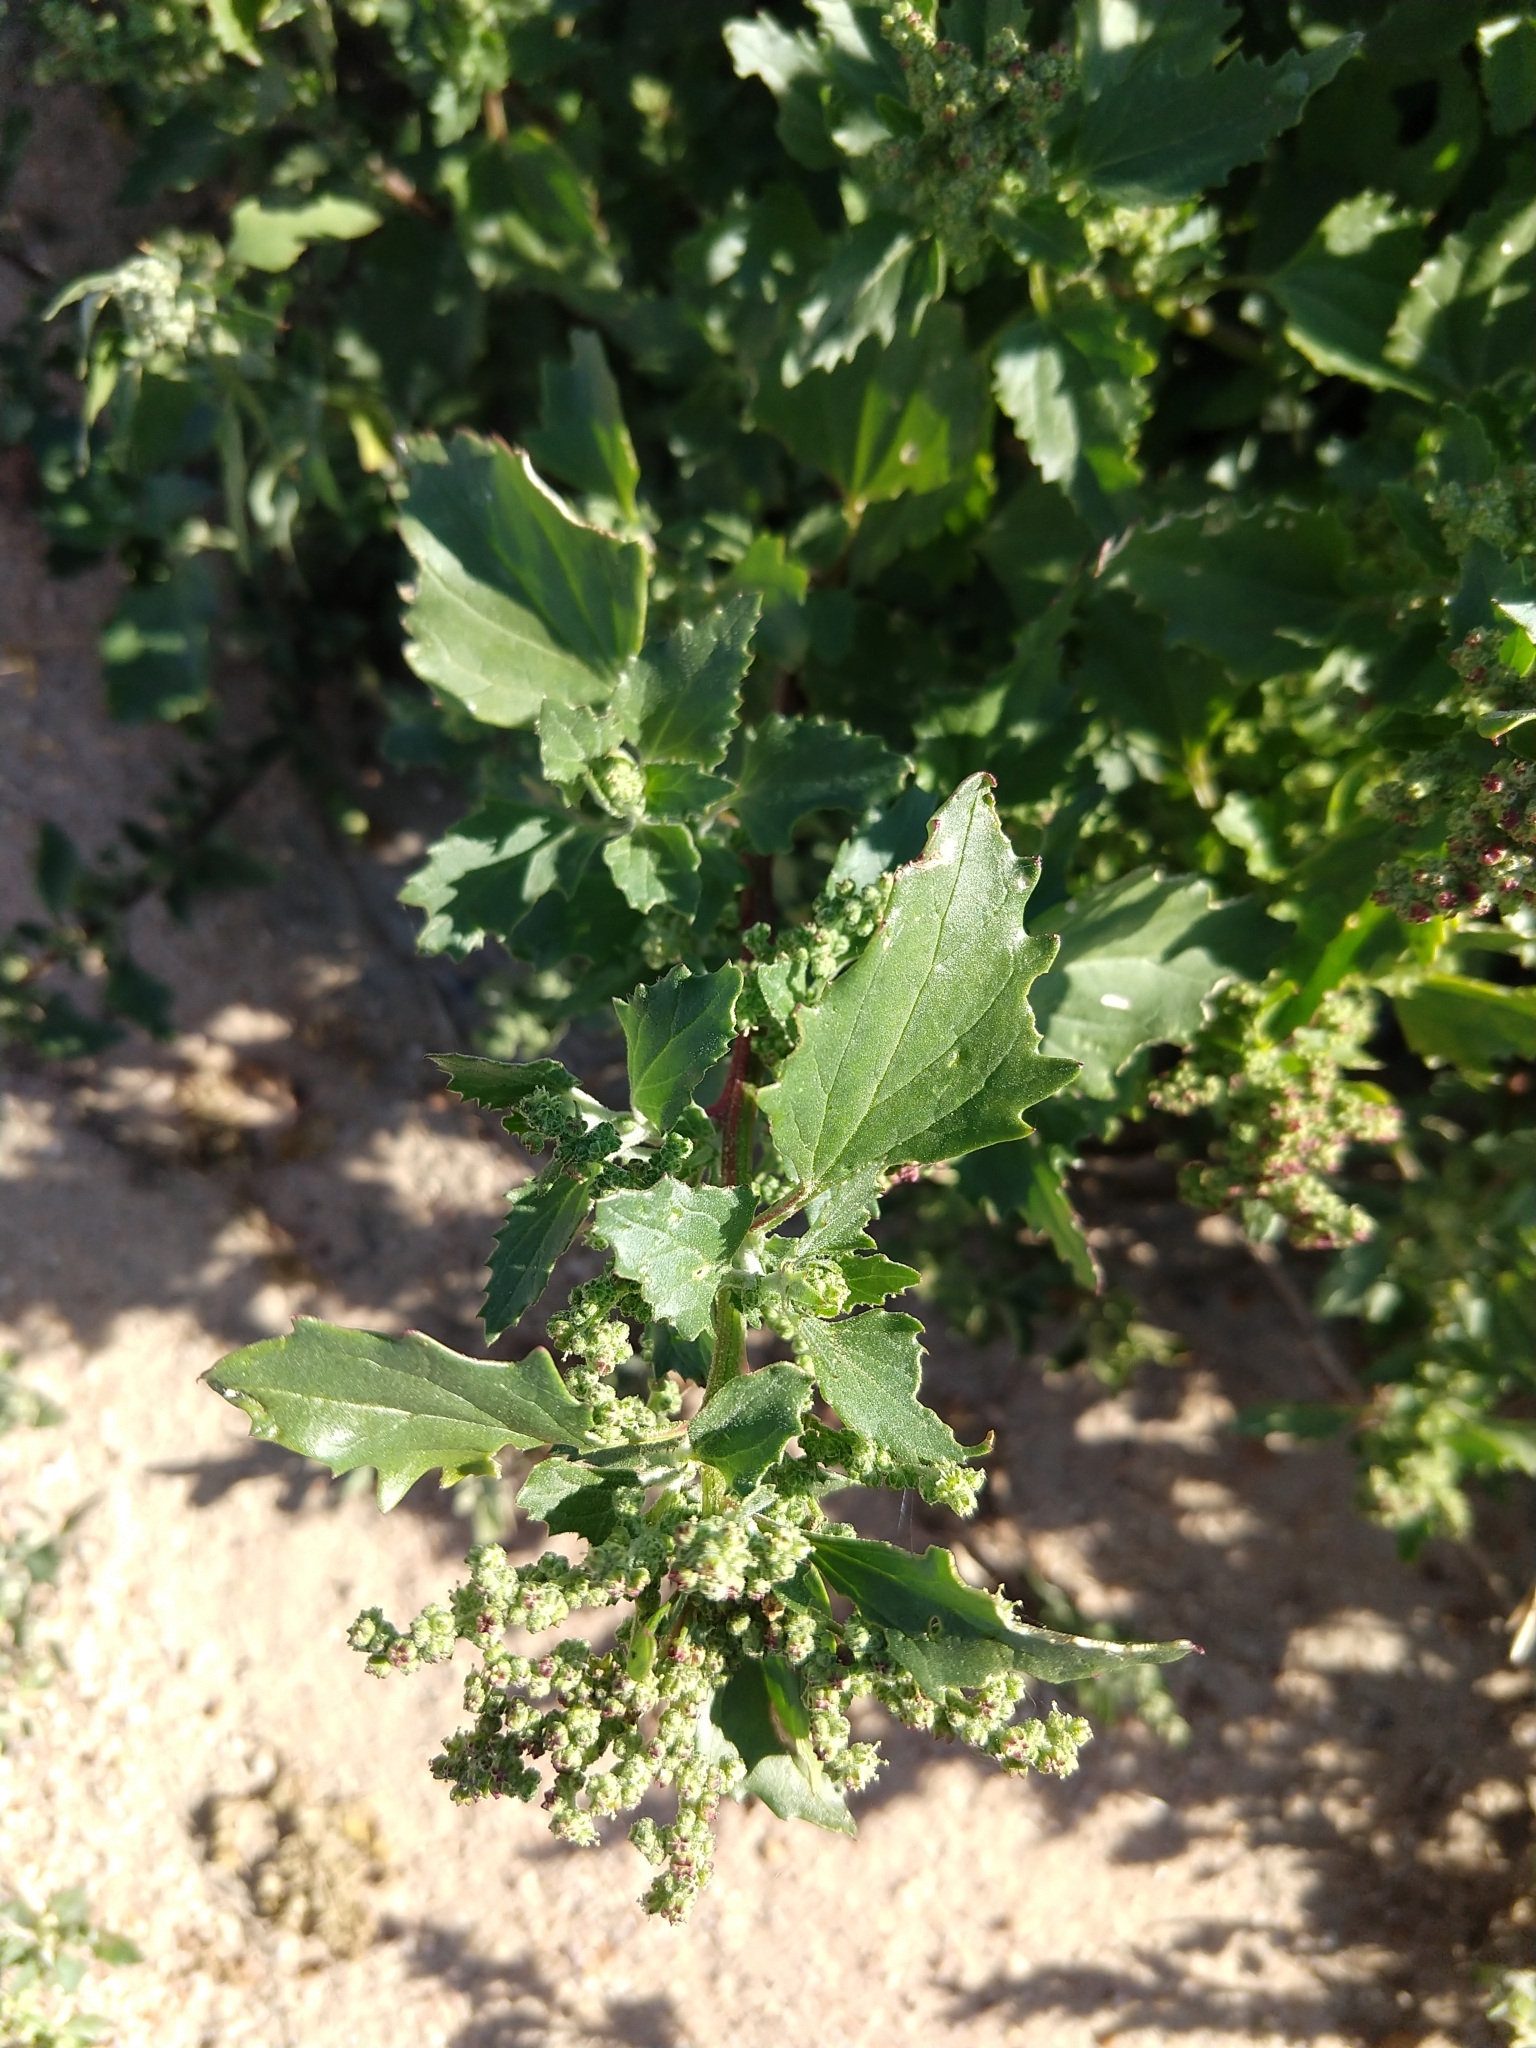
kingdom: Plantae
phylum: Tracheophyta
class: Magnoliopsida
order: Caryophyllales
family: Amaranthaceae
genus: Chenopodiastrum
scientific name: Chenopodiastrum murale
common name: Sowbane
